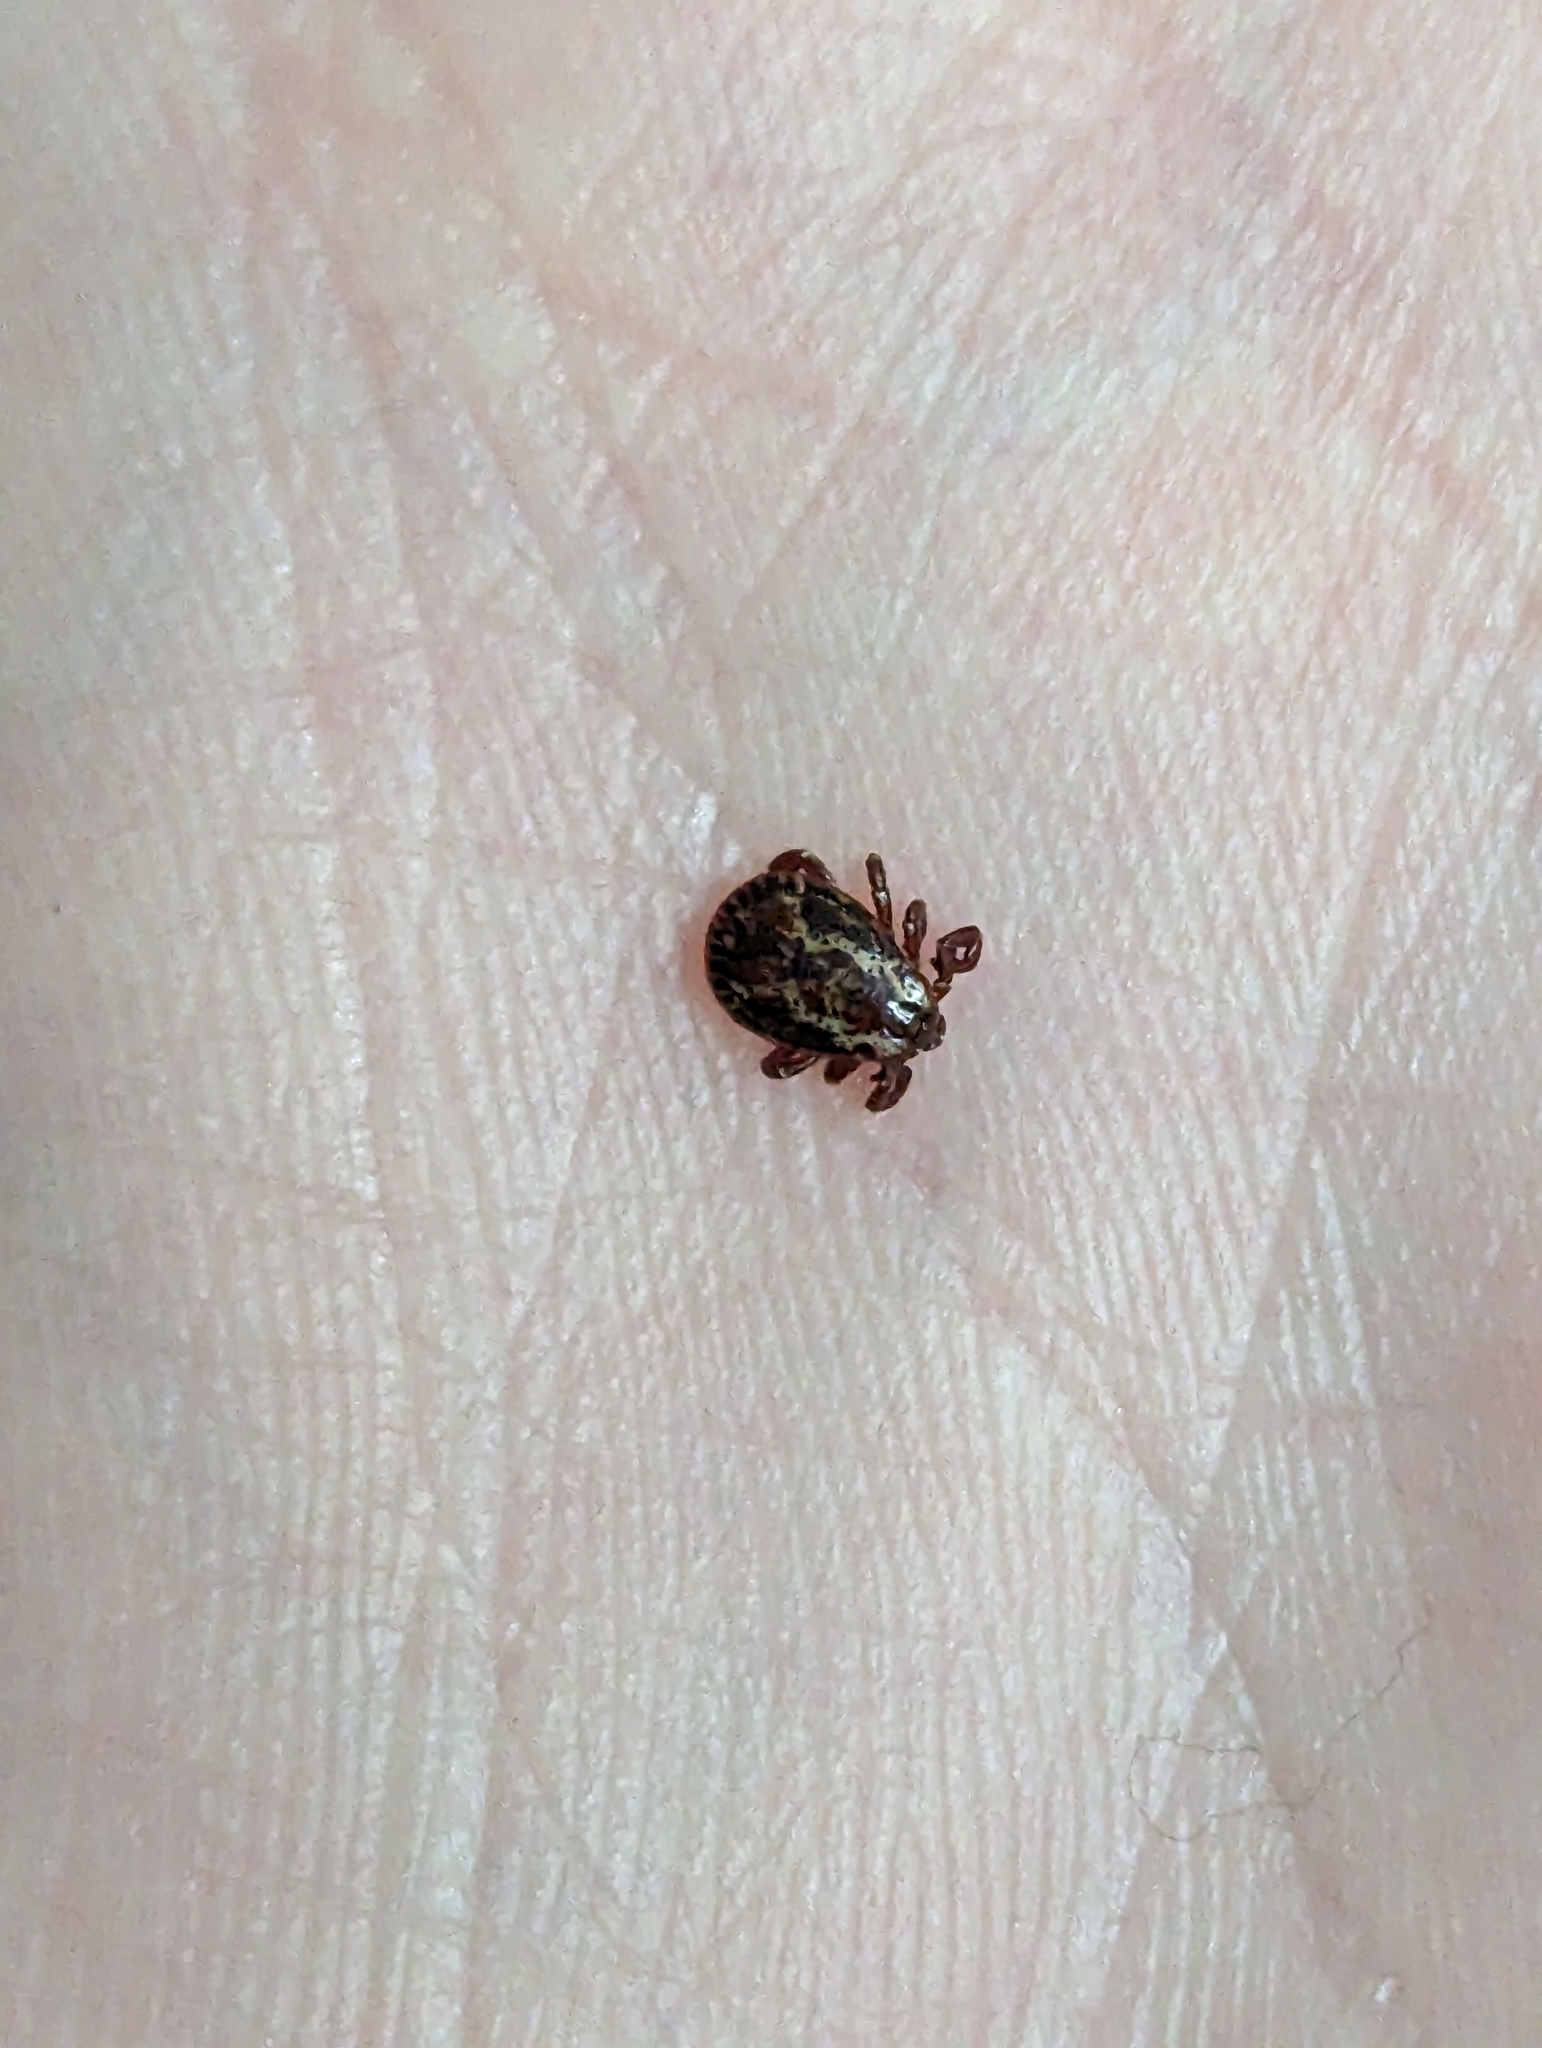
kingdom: Animalia
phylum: Arthropoda
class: Arachnida
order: Ixodida
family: Ixodidae
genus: Dermacentor
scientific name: Dermacentor variabilis
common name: American dog tick
